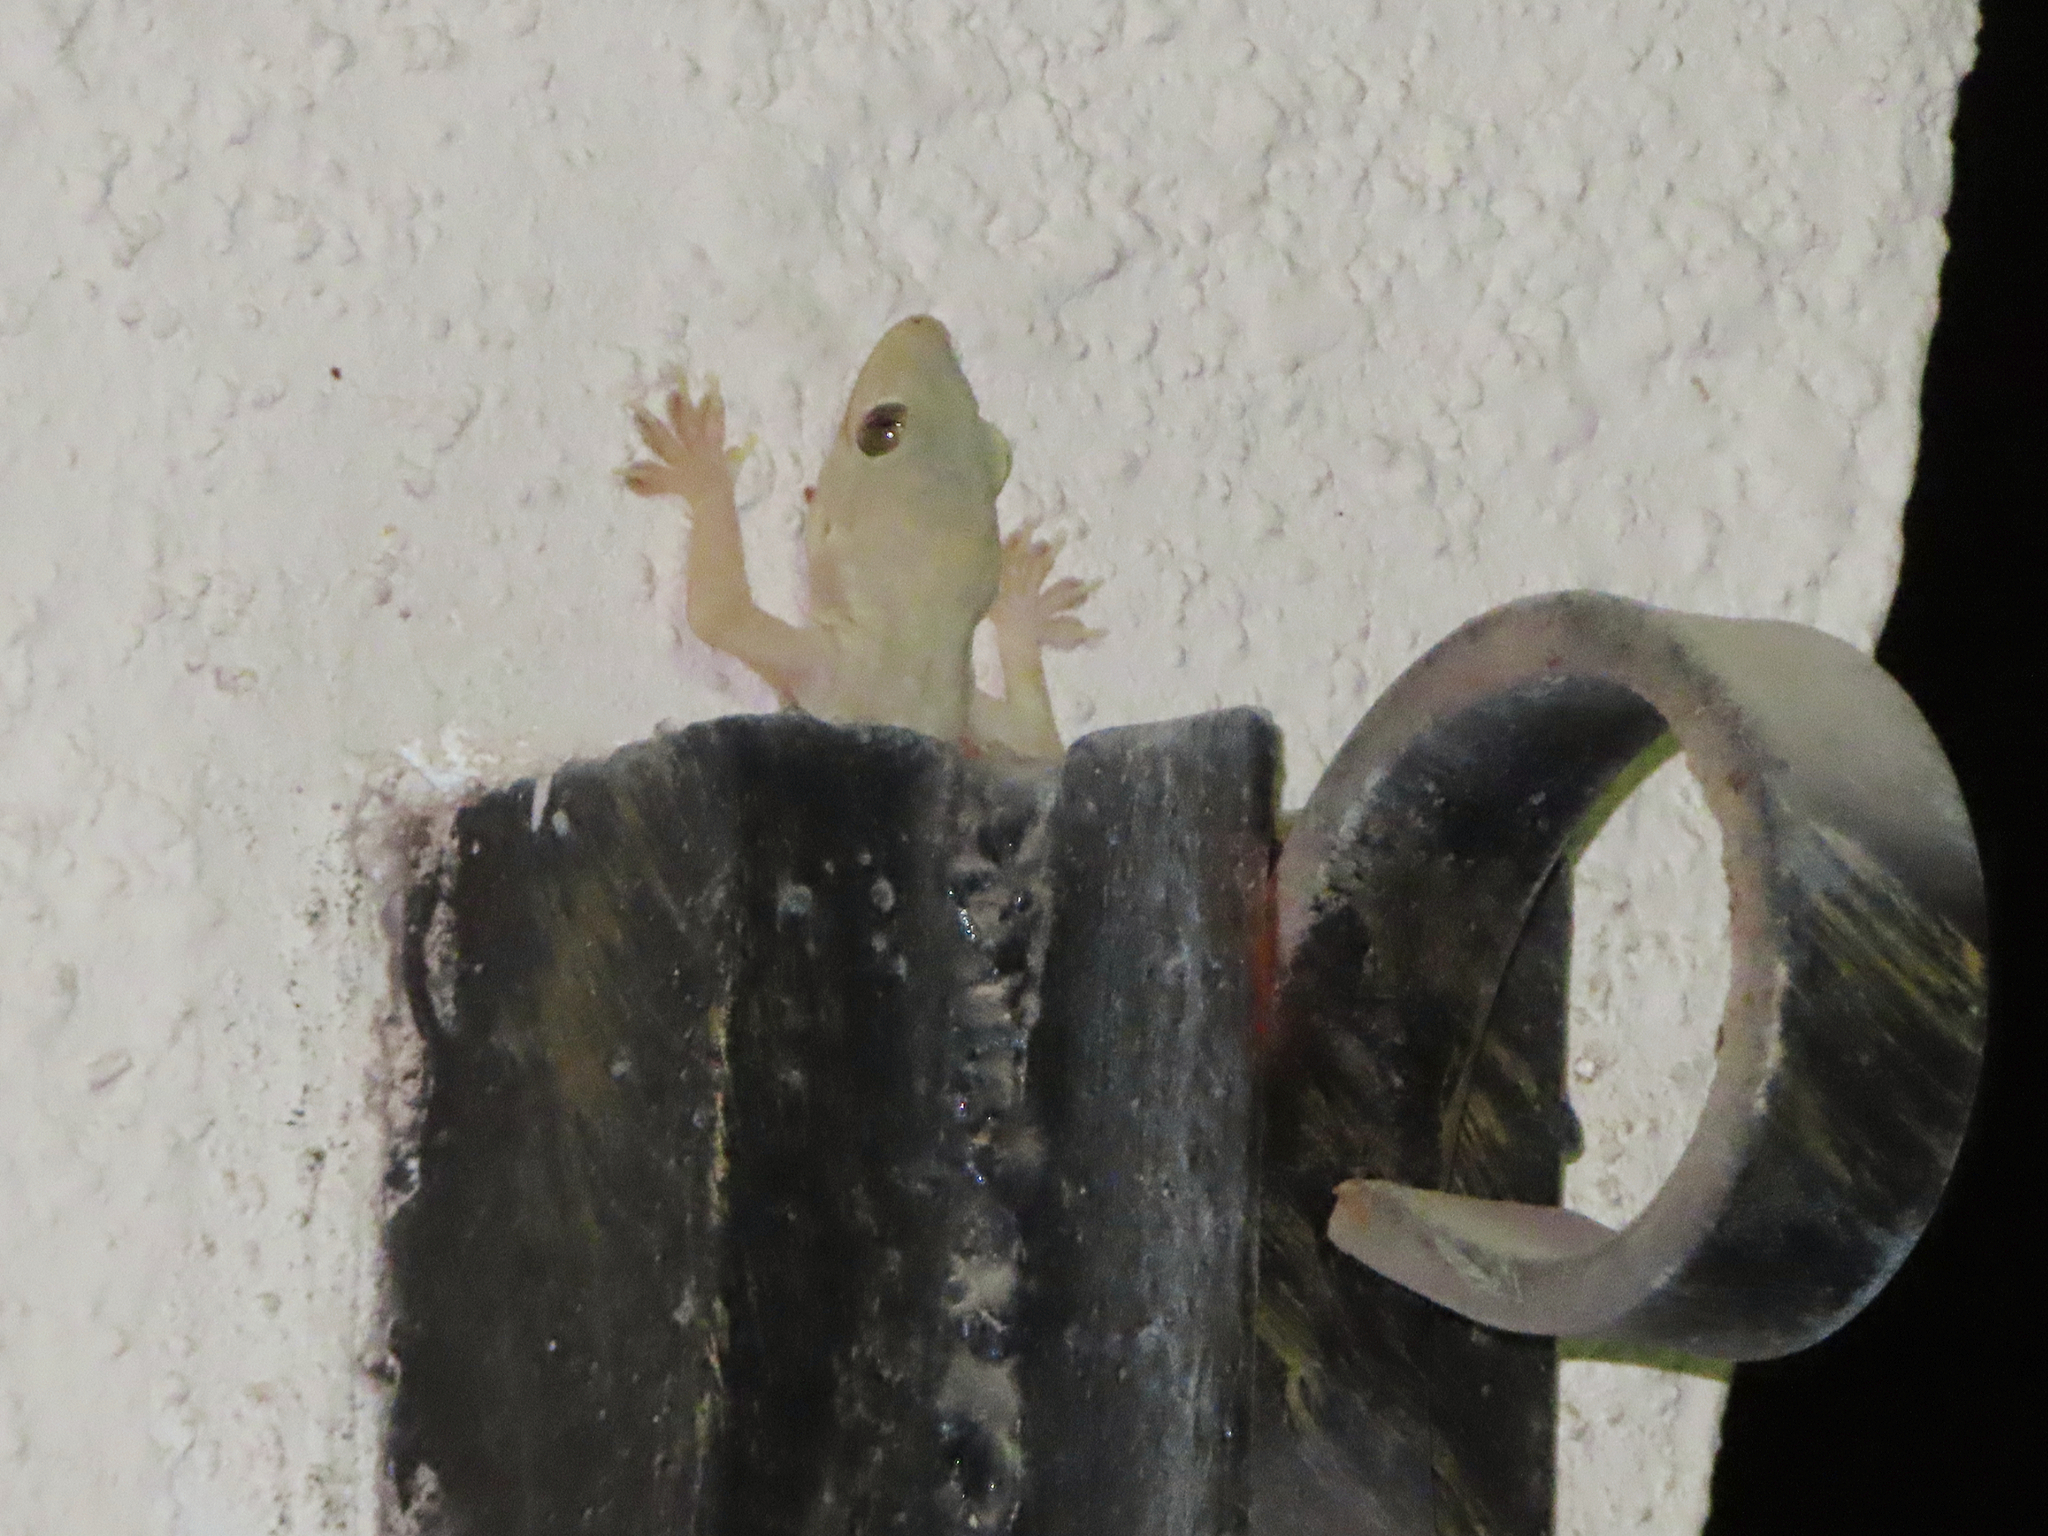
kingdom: Animalia
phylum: Chordata
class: Squamata
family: Gekkonidae
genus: Hemidactylus
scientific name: Hemidactylus flaviviridis
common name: Northern house gecko
